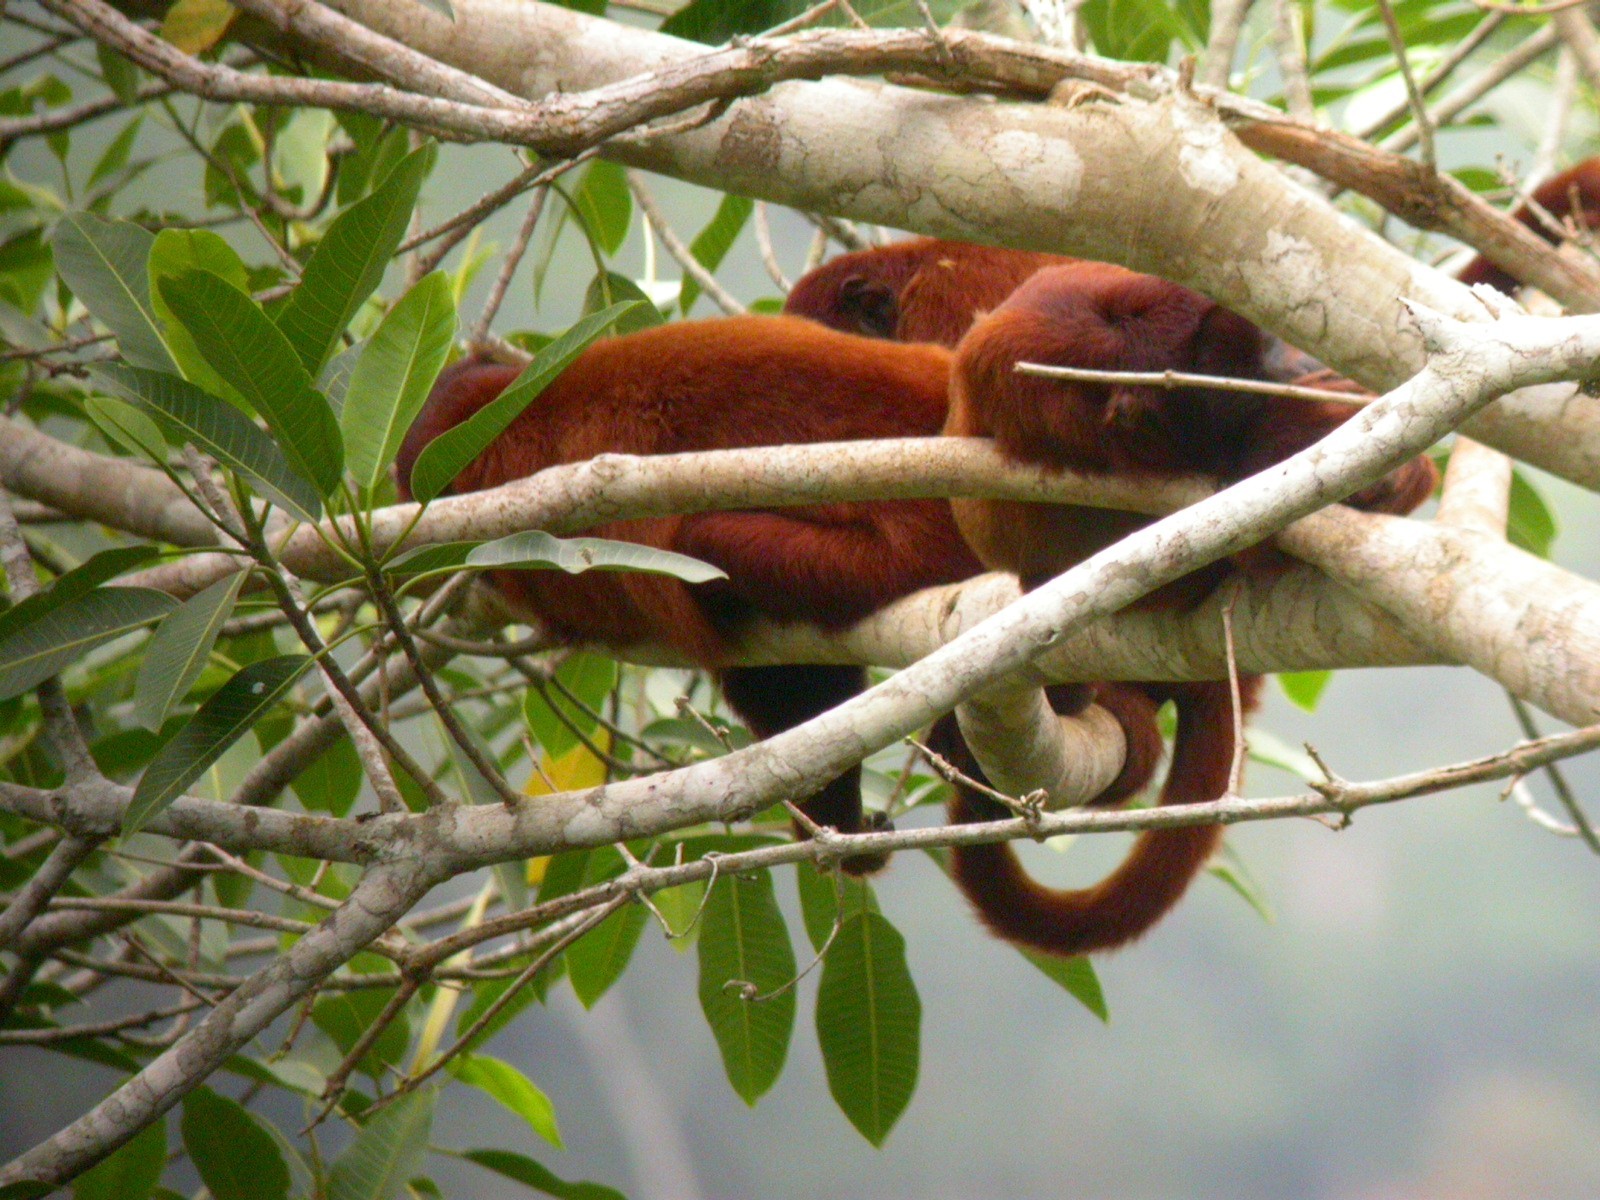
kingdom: Animalia
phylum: Chordata
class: Mammalia
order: Primates
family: Atelidae
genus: Alouatta
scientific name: Alouatta sara
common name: Bolivian red howler
